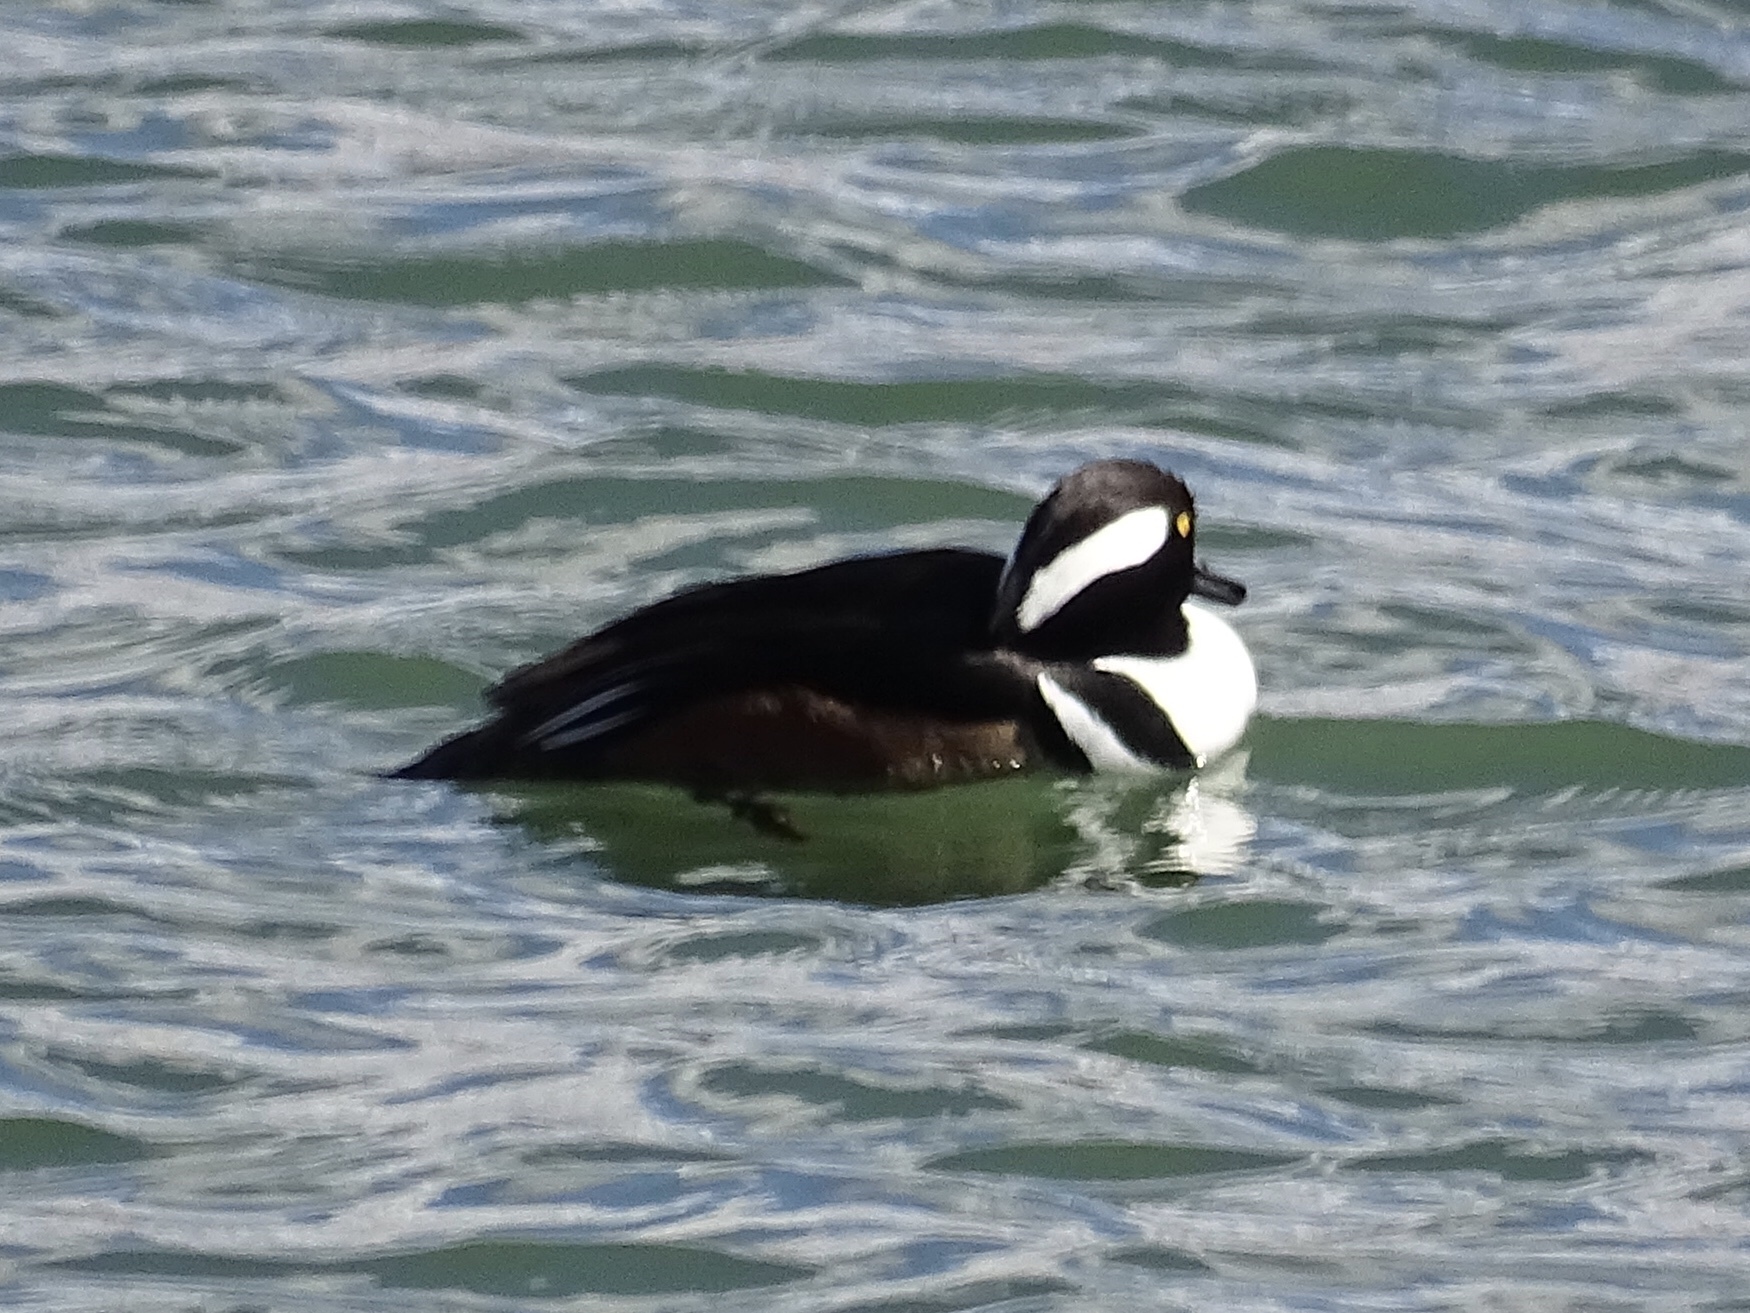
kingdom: Animalia
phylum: Chordata
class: Aves
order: Anseriformes
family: Anatidae
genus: Lophodytes
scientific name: Lophodytes cucullatus
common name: Hooded merganser
